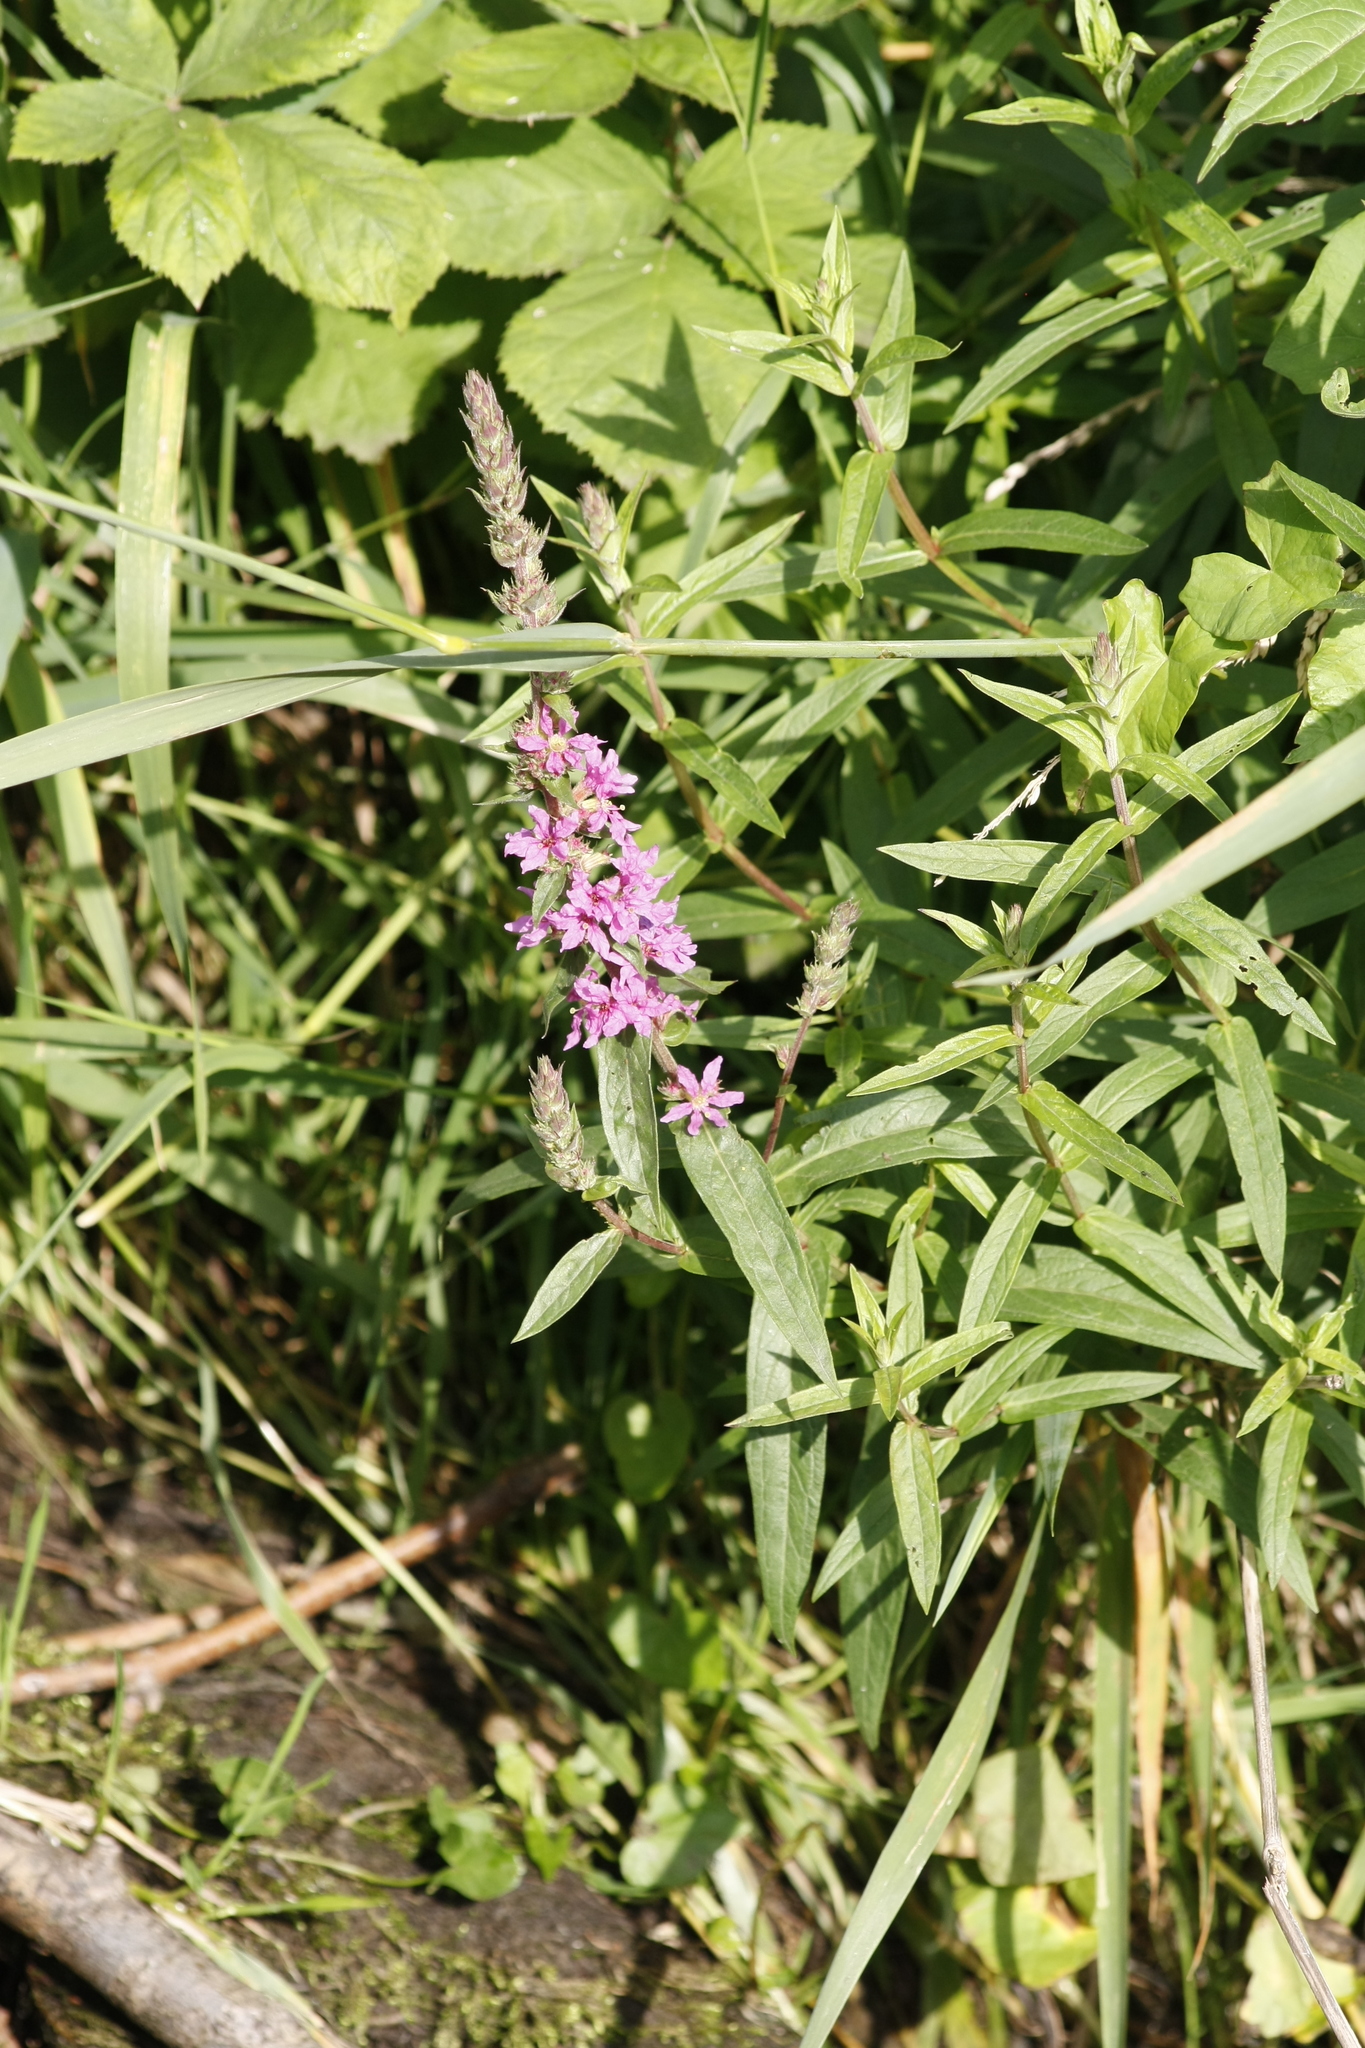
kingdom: Plantae
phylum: Tracheophyta
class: Magnoliopsida
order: Myrtales
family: Lythraceae
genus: Lythrum
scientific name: Lythrum salicaria
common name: Purple loosestrife
